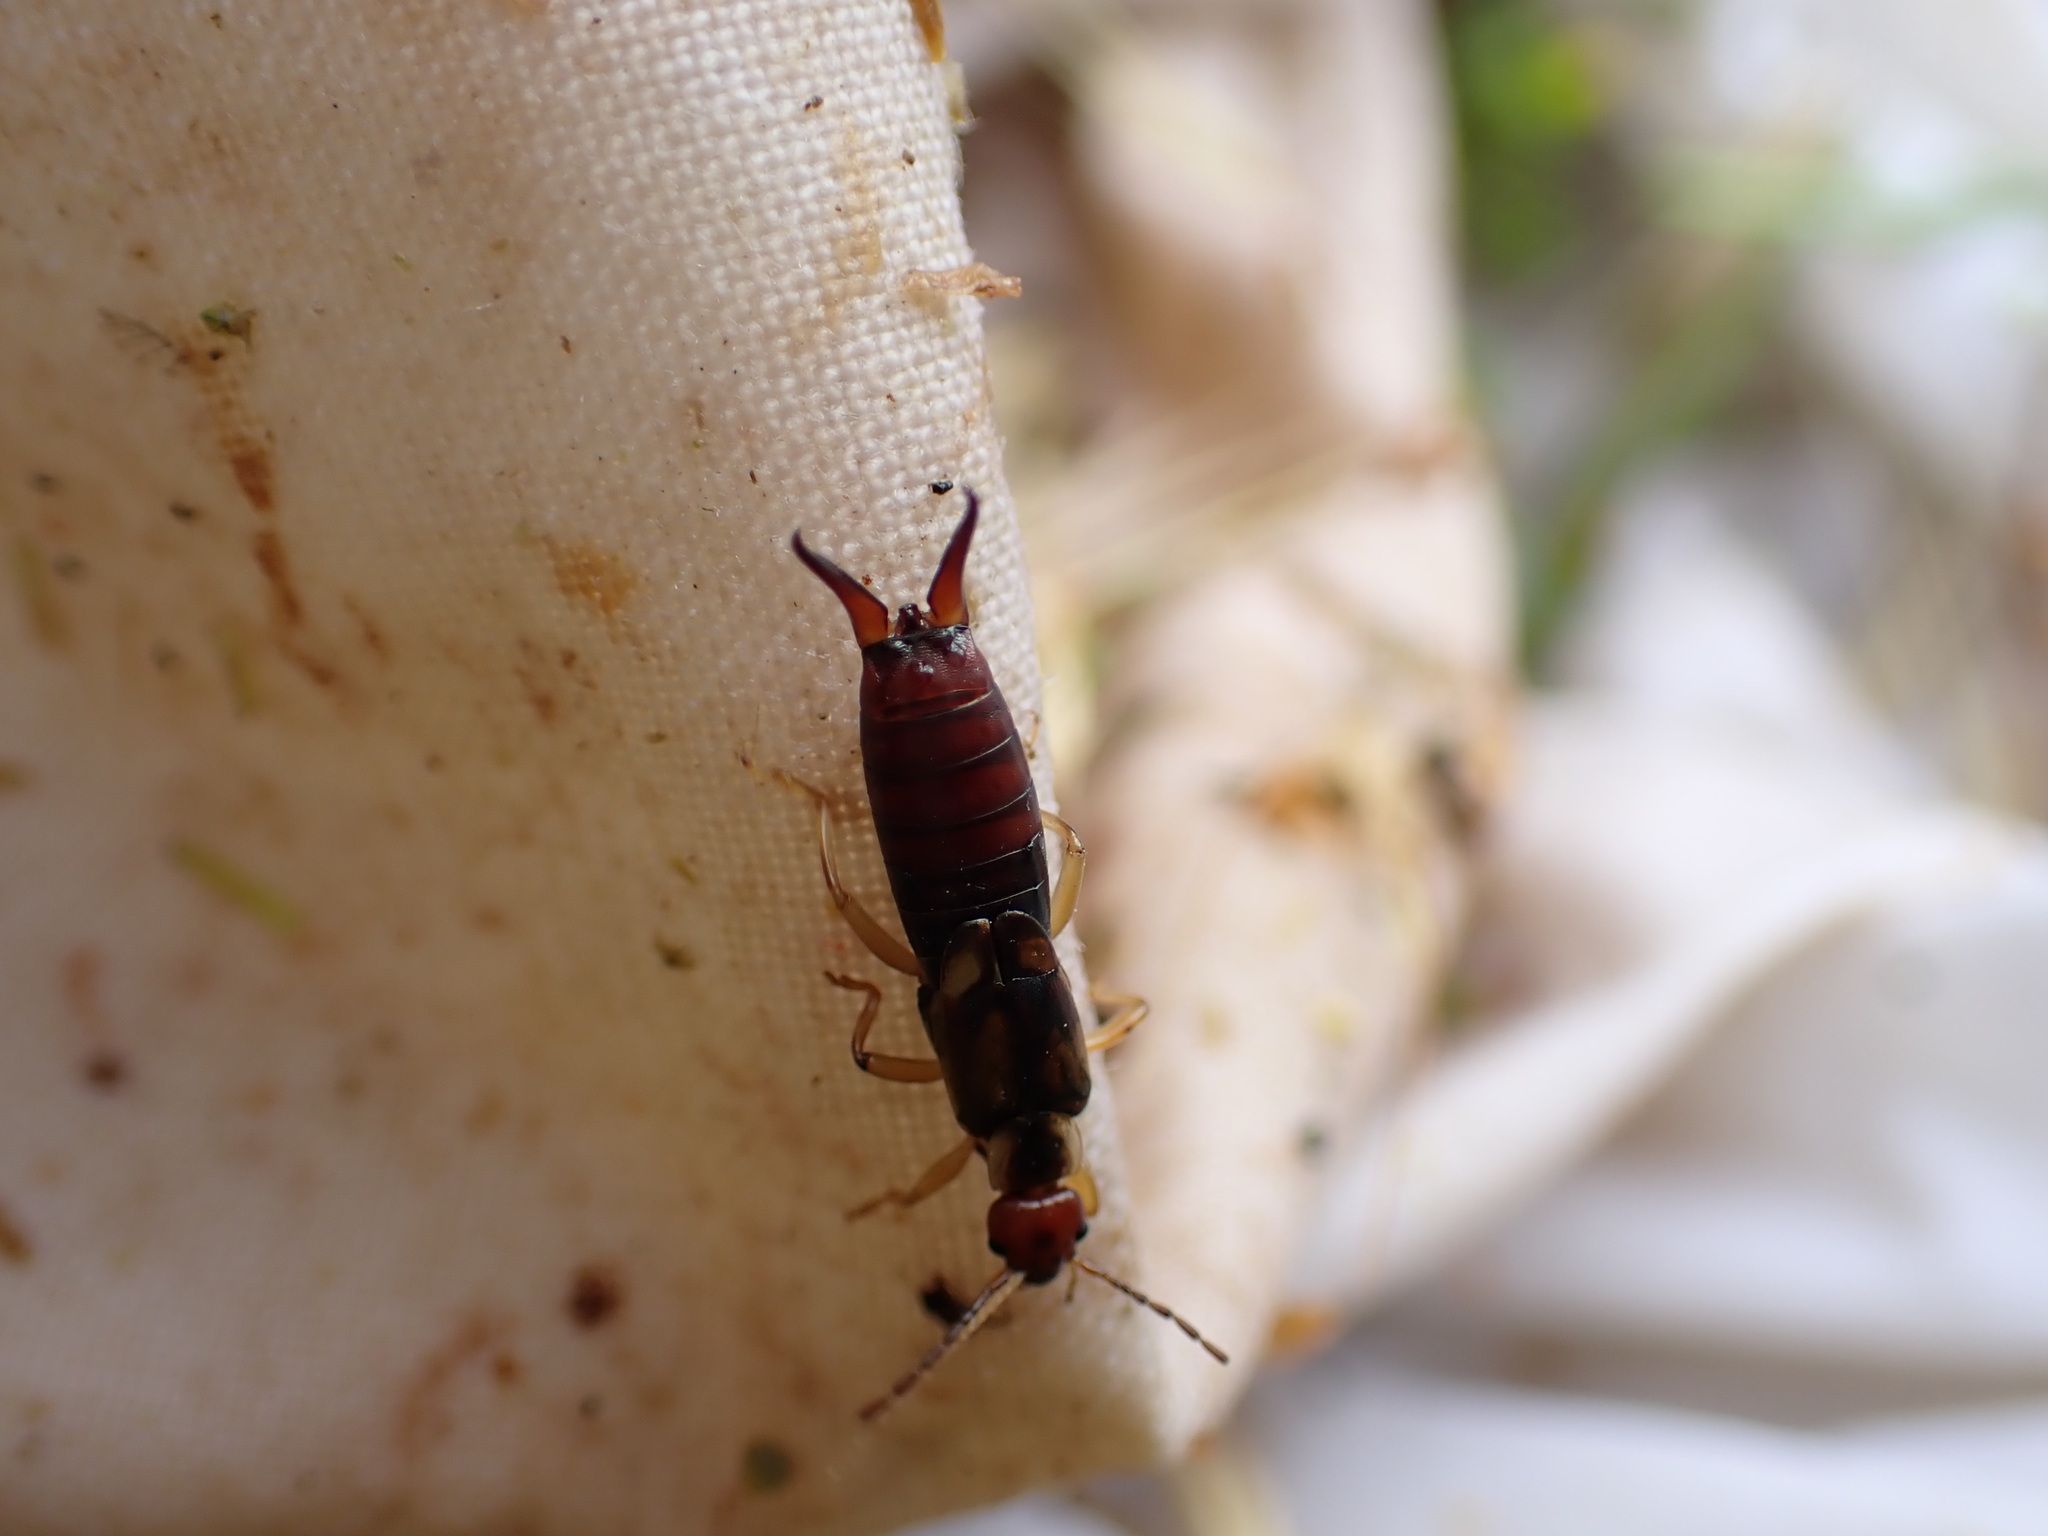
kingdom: Animalia
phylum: Arthropoda
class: Insecta
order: Dermaptera
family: Forficulidae
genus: Forficula
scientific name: Forficula
